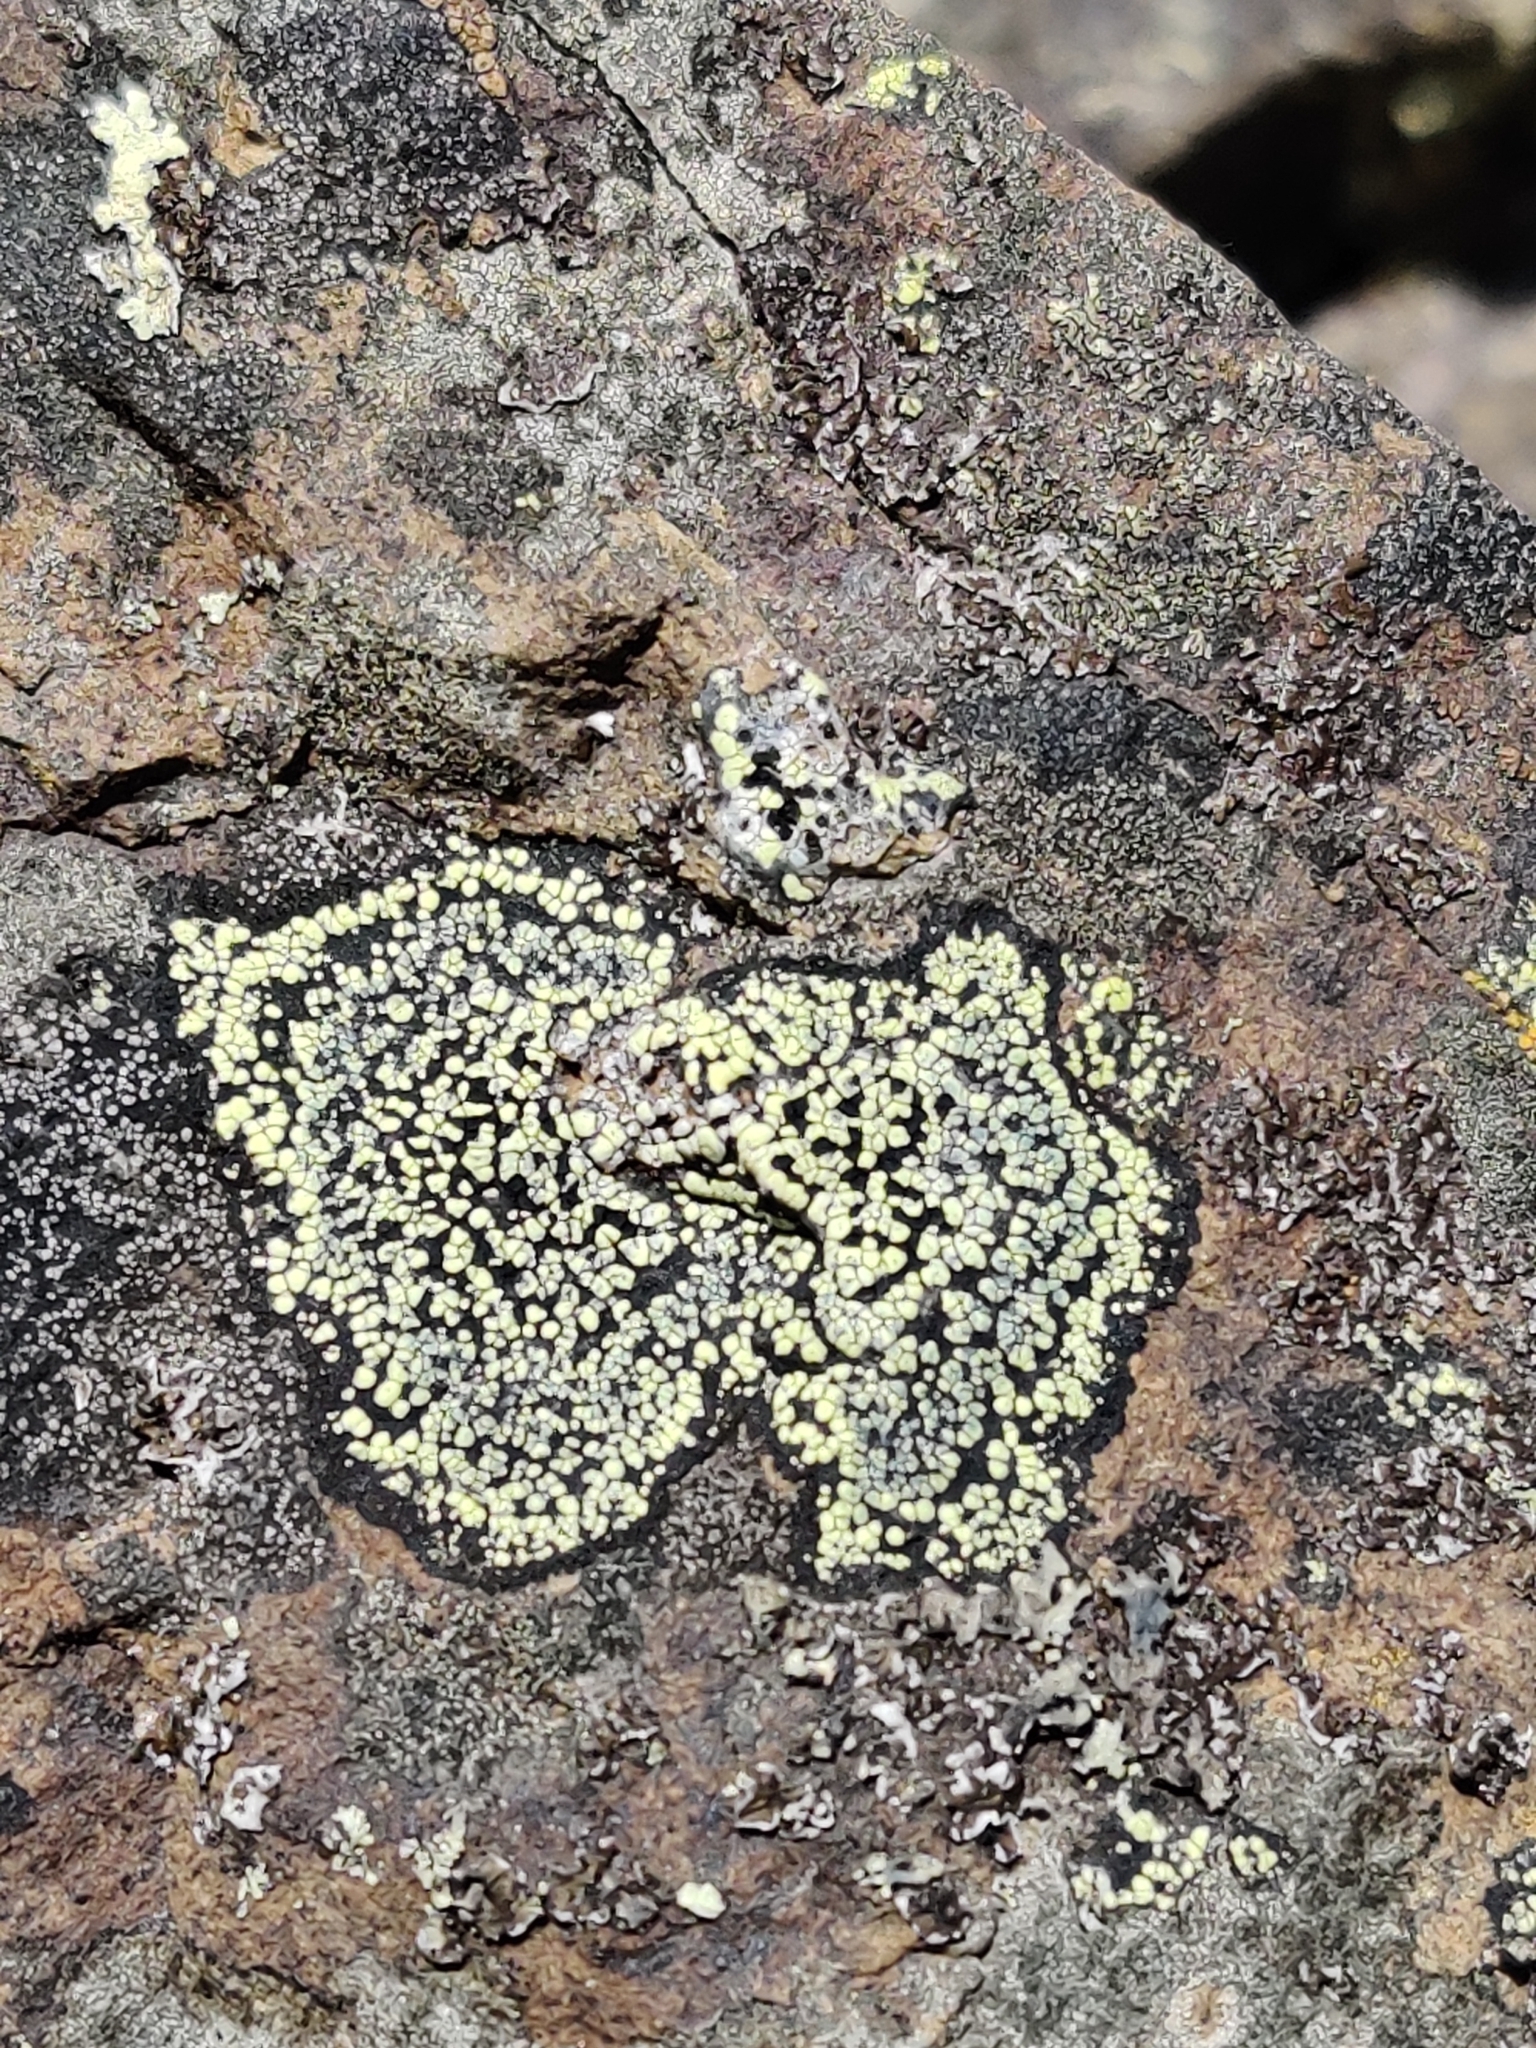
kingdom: Fungi
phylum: Ascomycota
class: Lecanoromycetes
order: Rhizocarpales
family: Rhizocarpaceae
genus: Rhizocarpon
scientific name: Rhizocarpon geographicum
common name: Yellow map lichen
